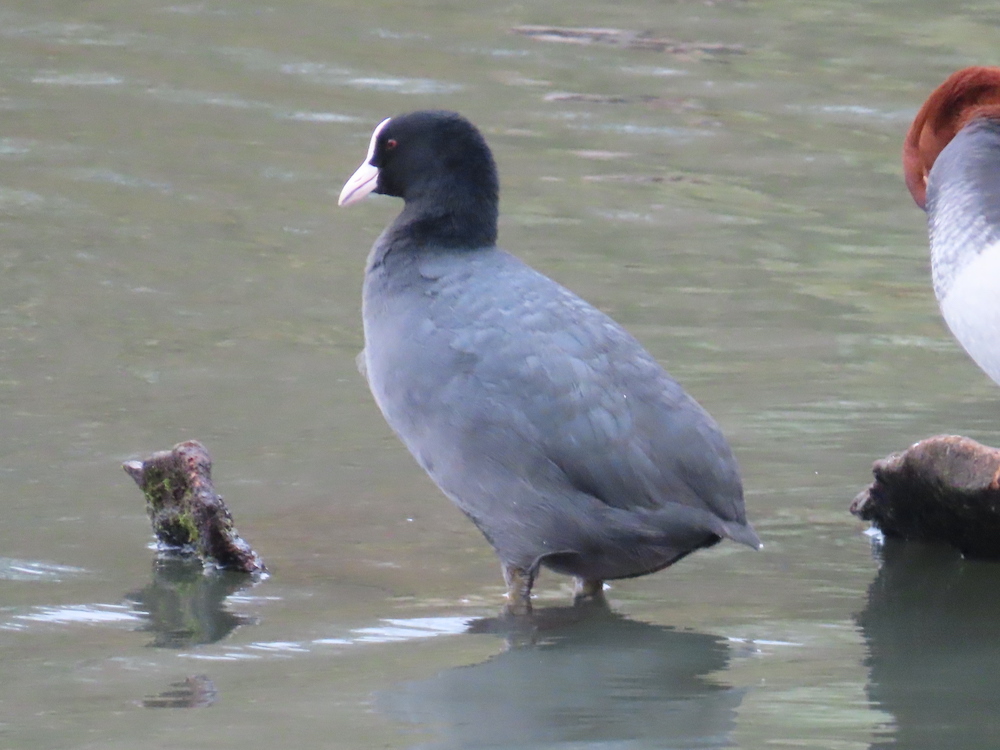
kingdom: Animalia
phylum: Chordata
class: Aves
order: Gruiformes
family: Rallidae
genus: Fulica
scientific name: Fulica atra
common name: Eurasian coot
